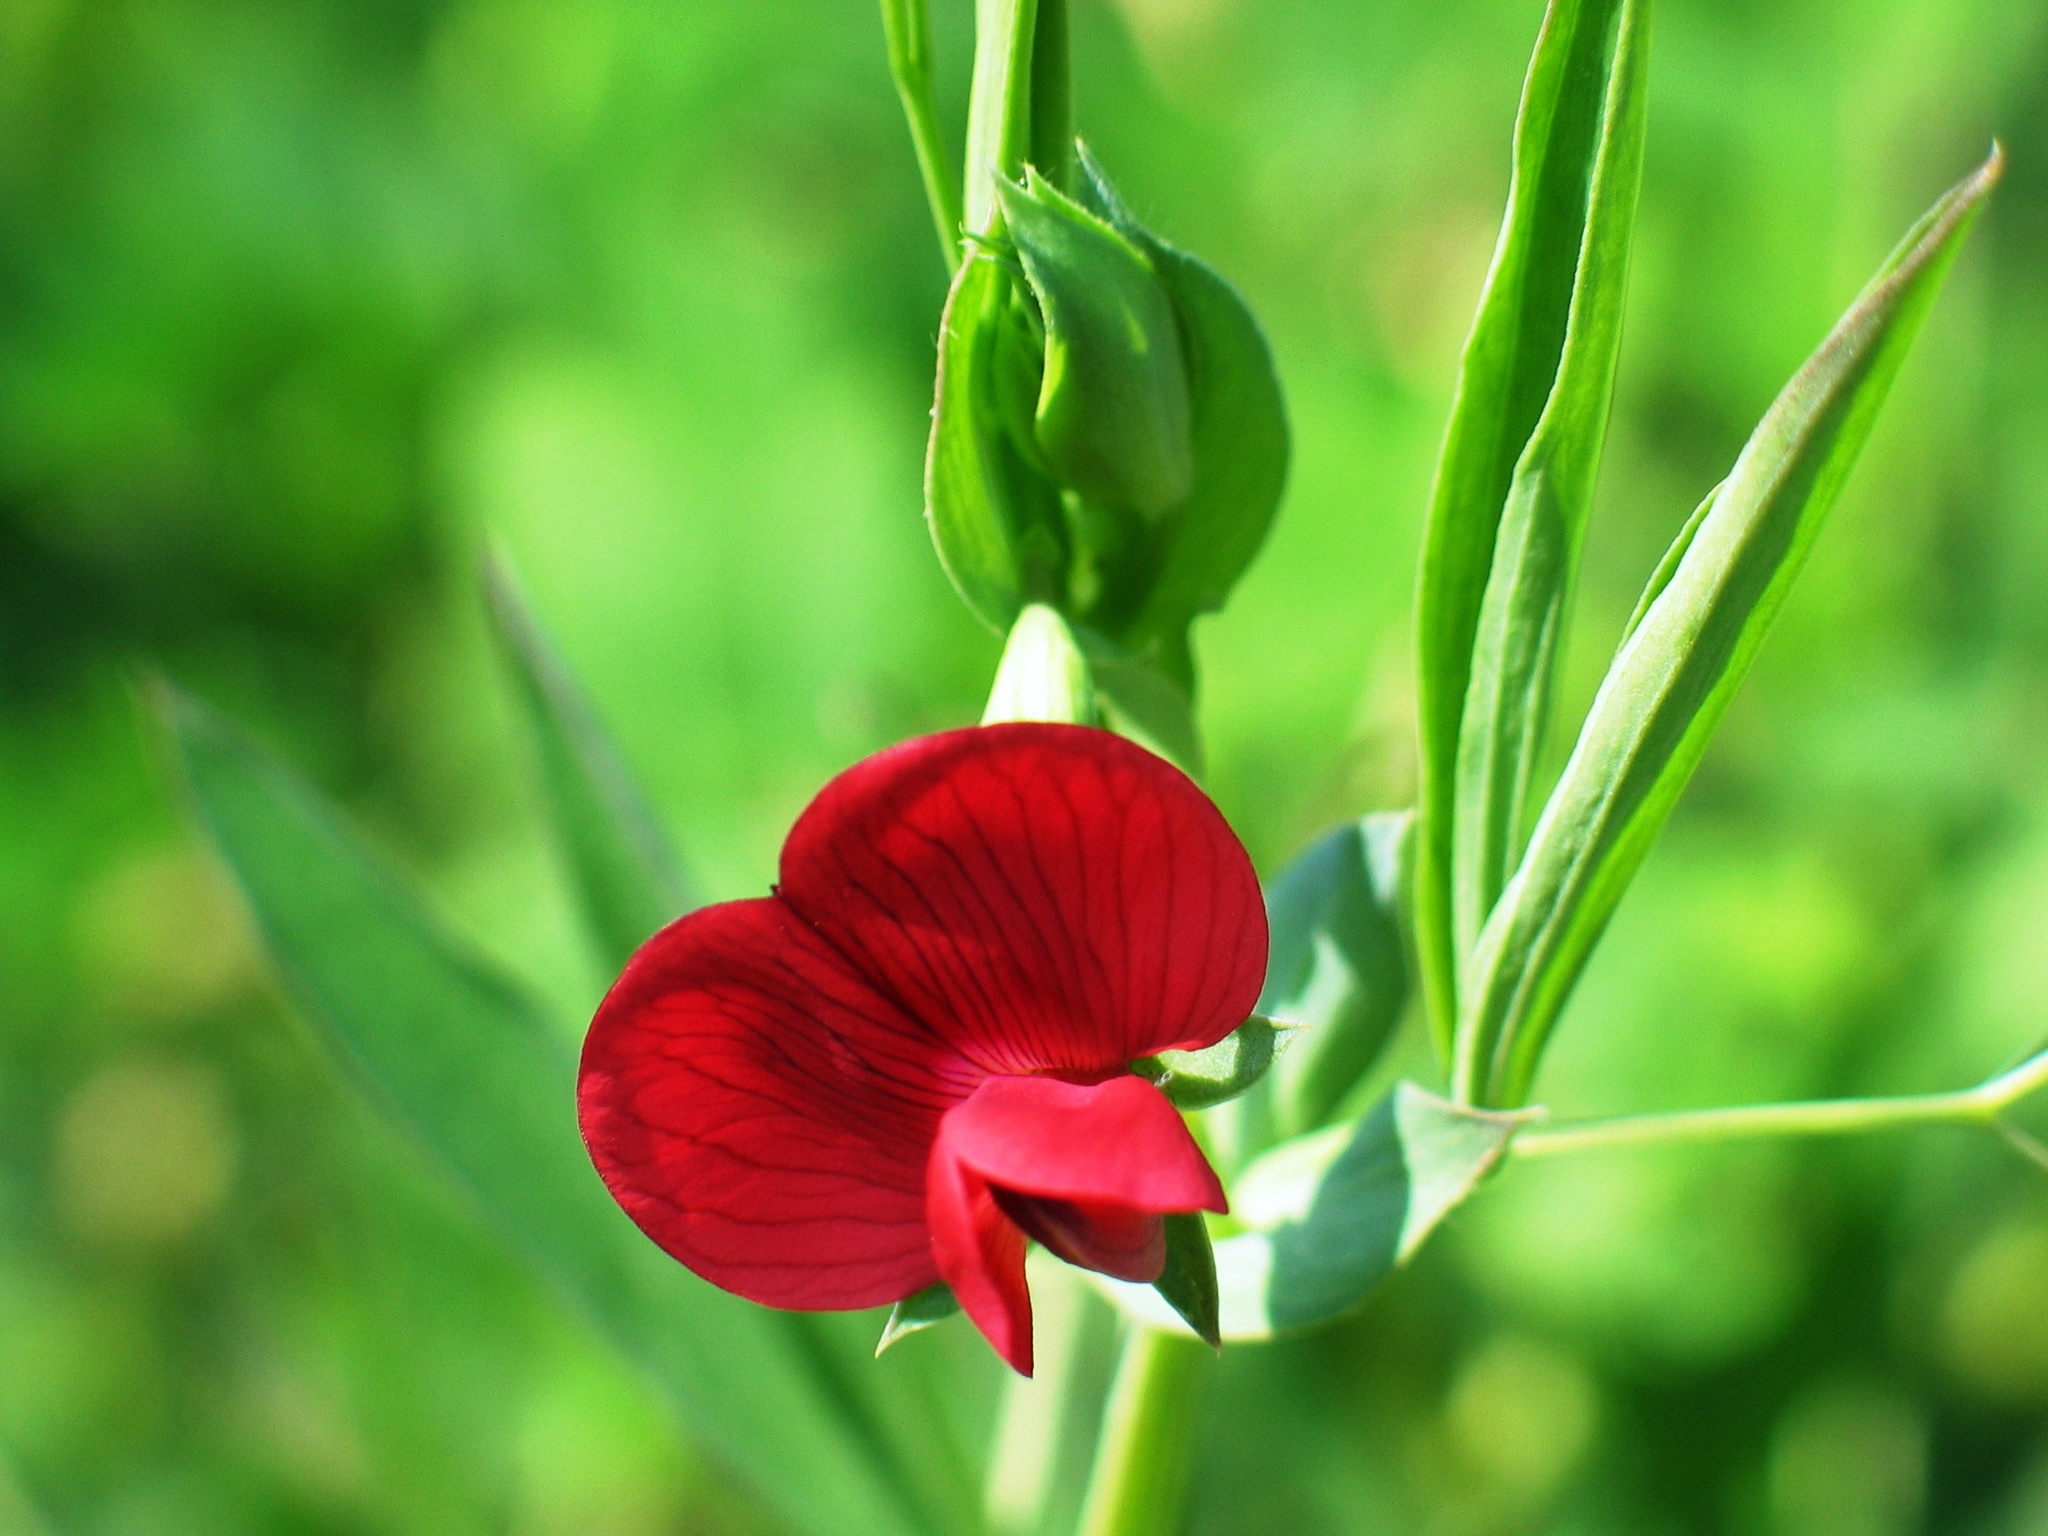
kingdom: Plantae
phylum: Tracheophyta
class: Magnoliopsida
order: Fabales
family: Fabaceae
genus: Lathyrus
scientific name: Lathyrus cicera
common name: Red vetchling
